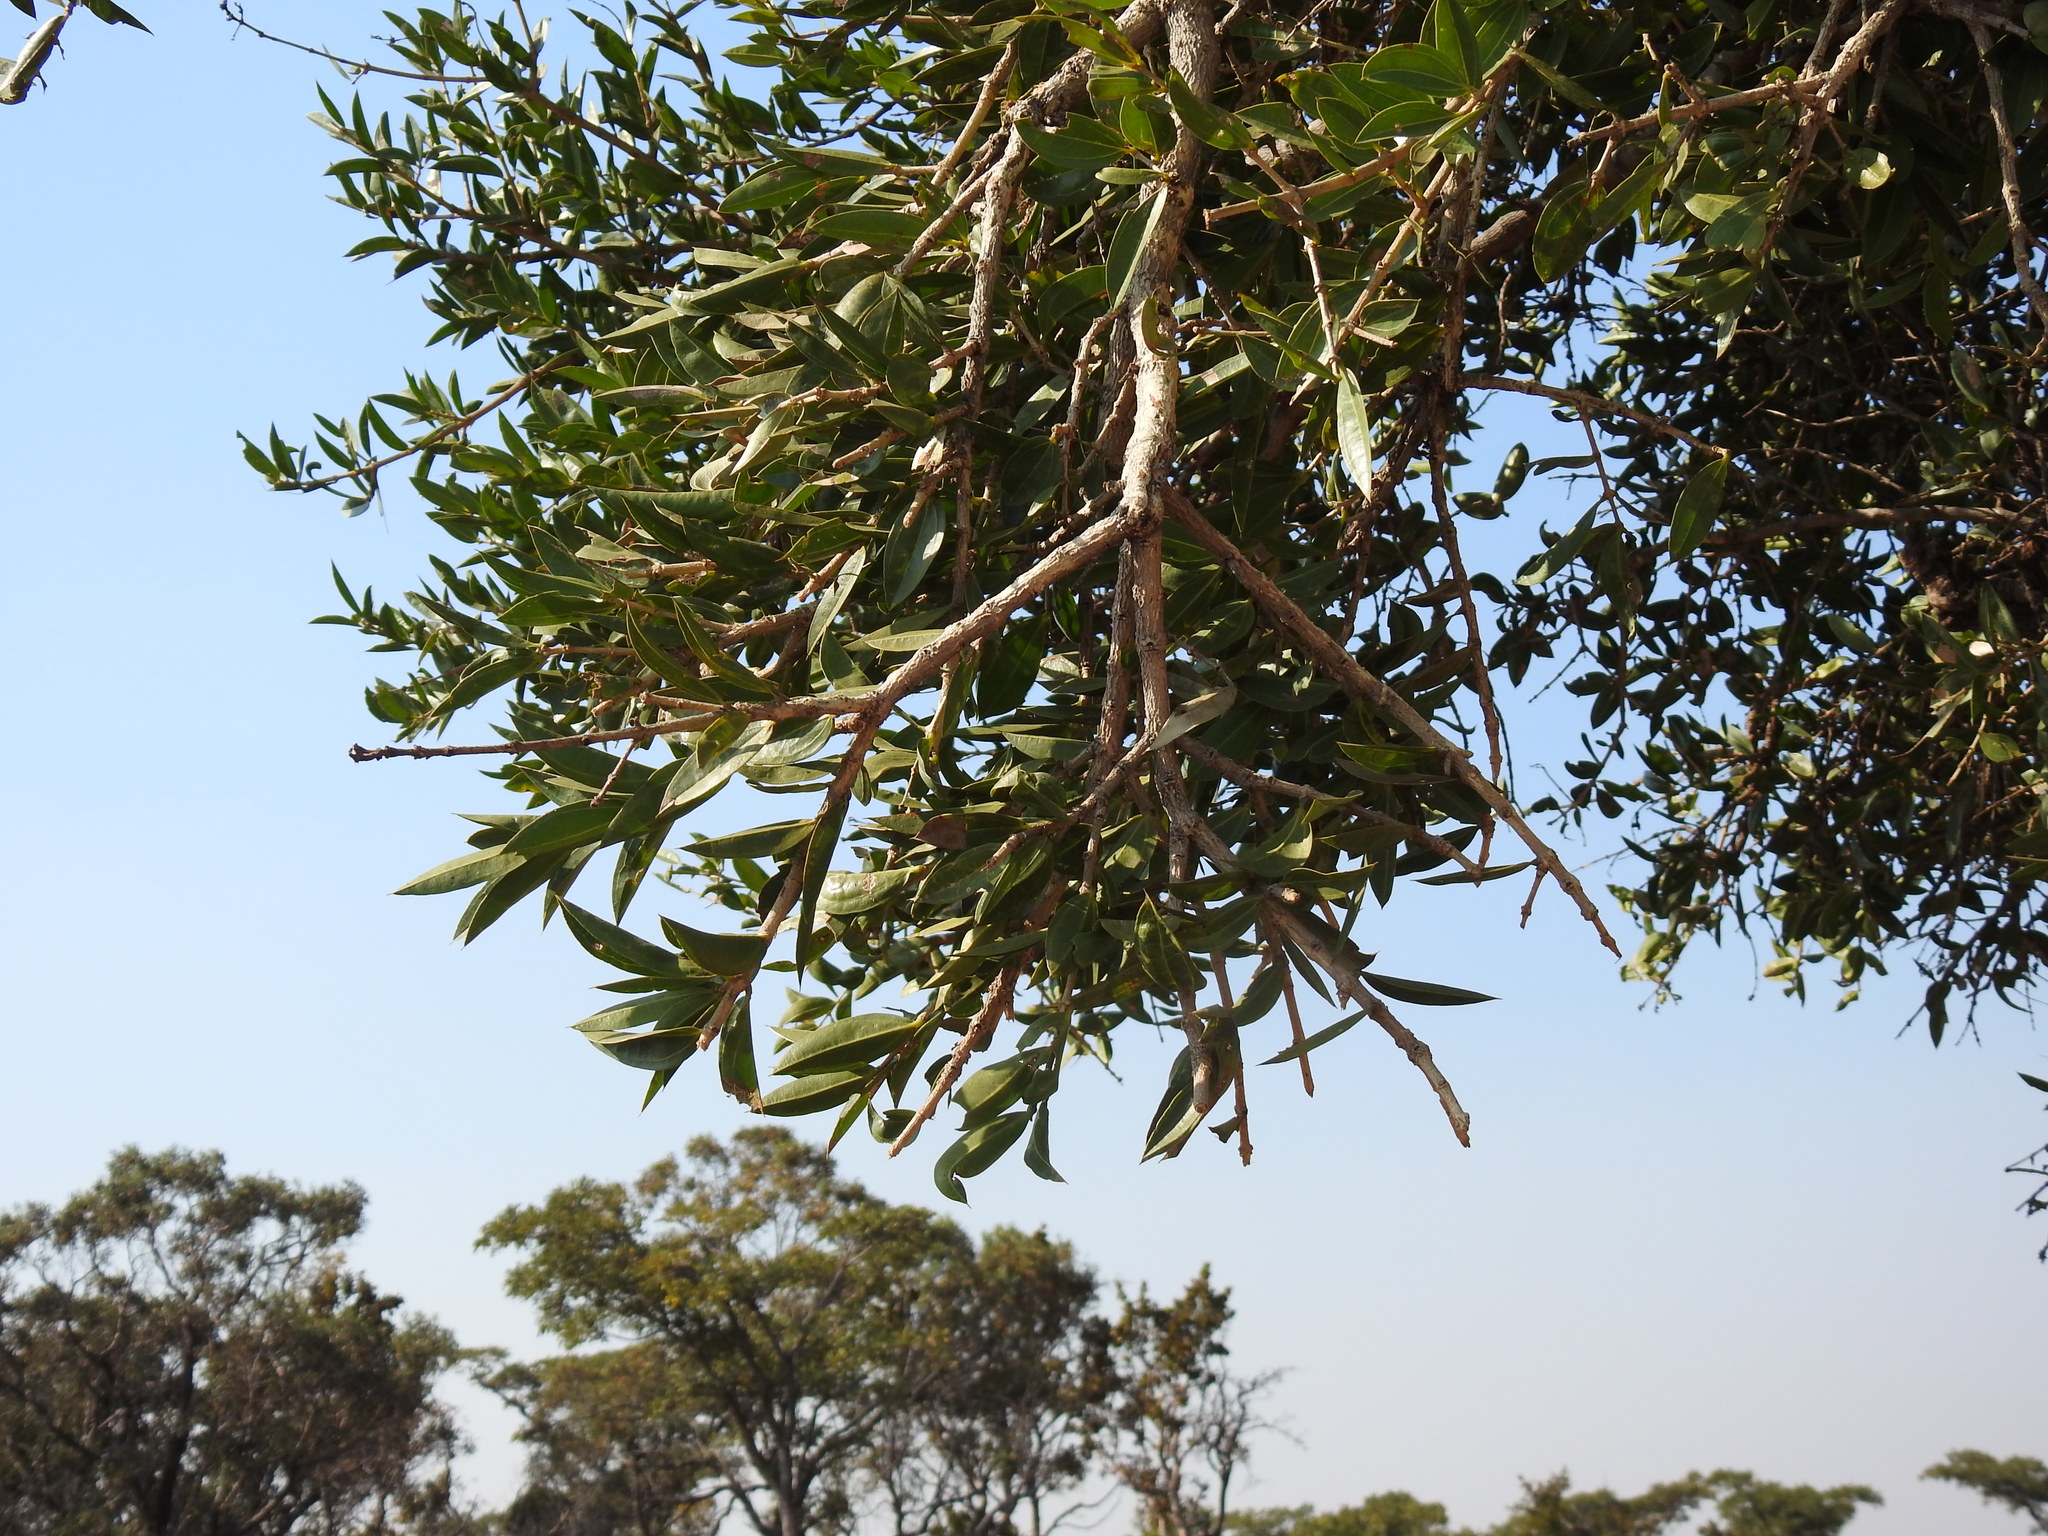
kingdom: Plantae
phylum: Tracheophyta
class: Magnoliopsida
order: Gentianales
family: Loganiaceae
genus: Strychnos
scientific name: Strychnos pungens
